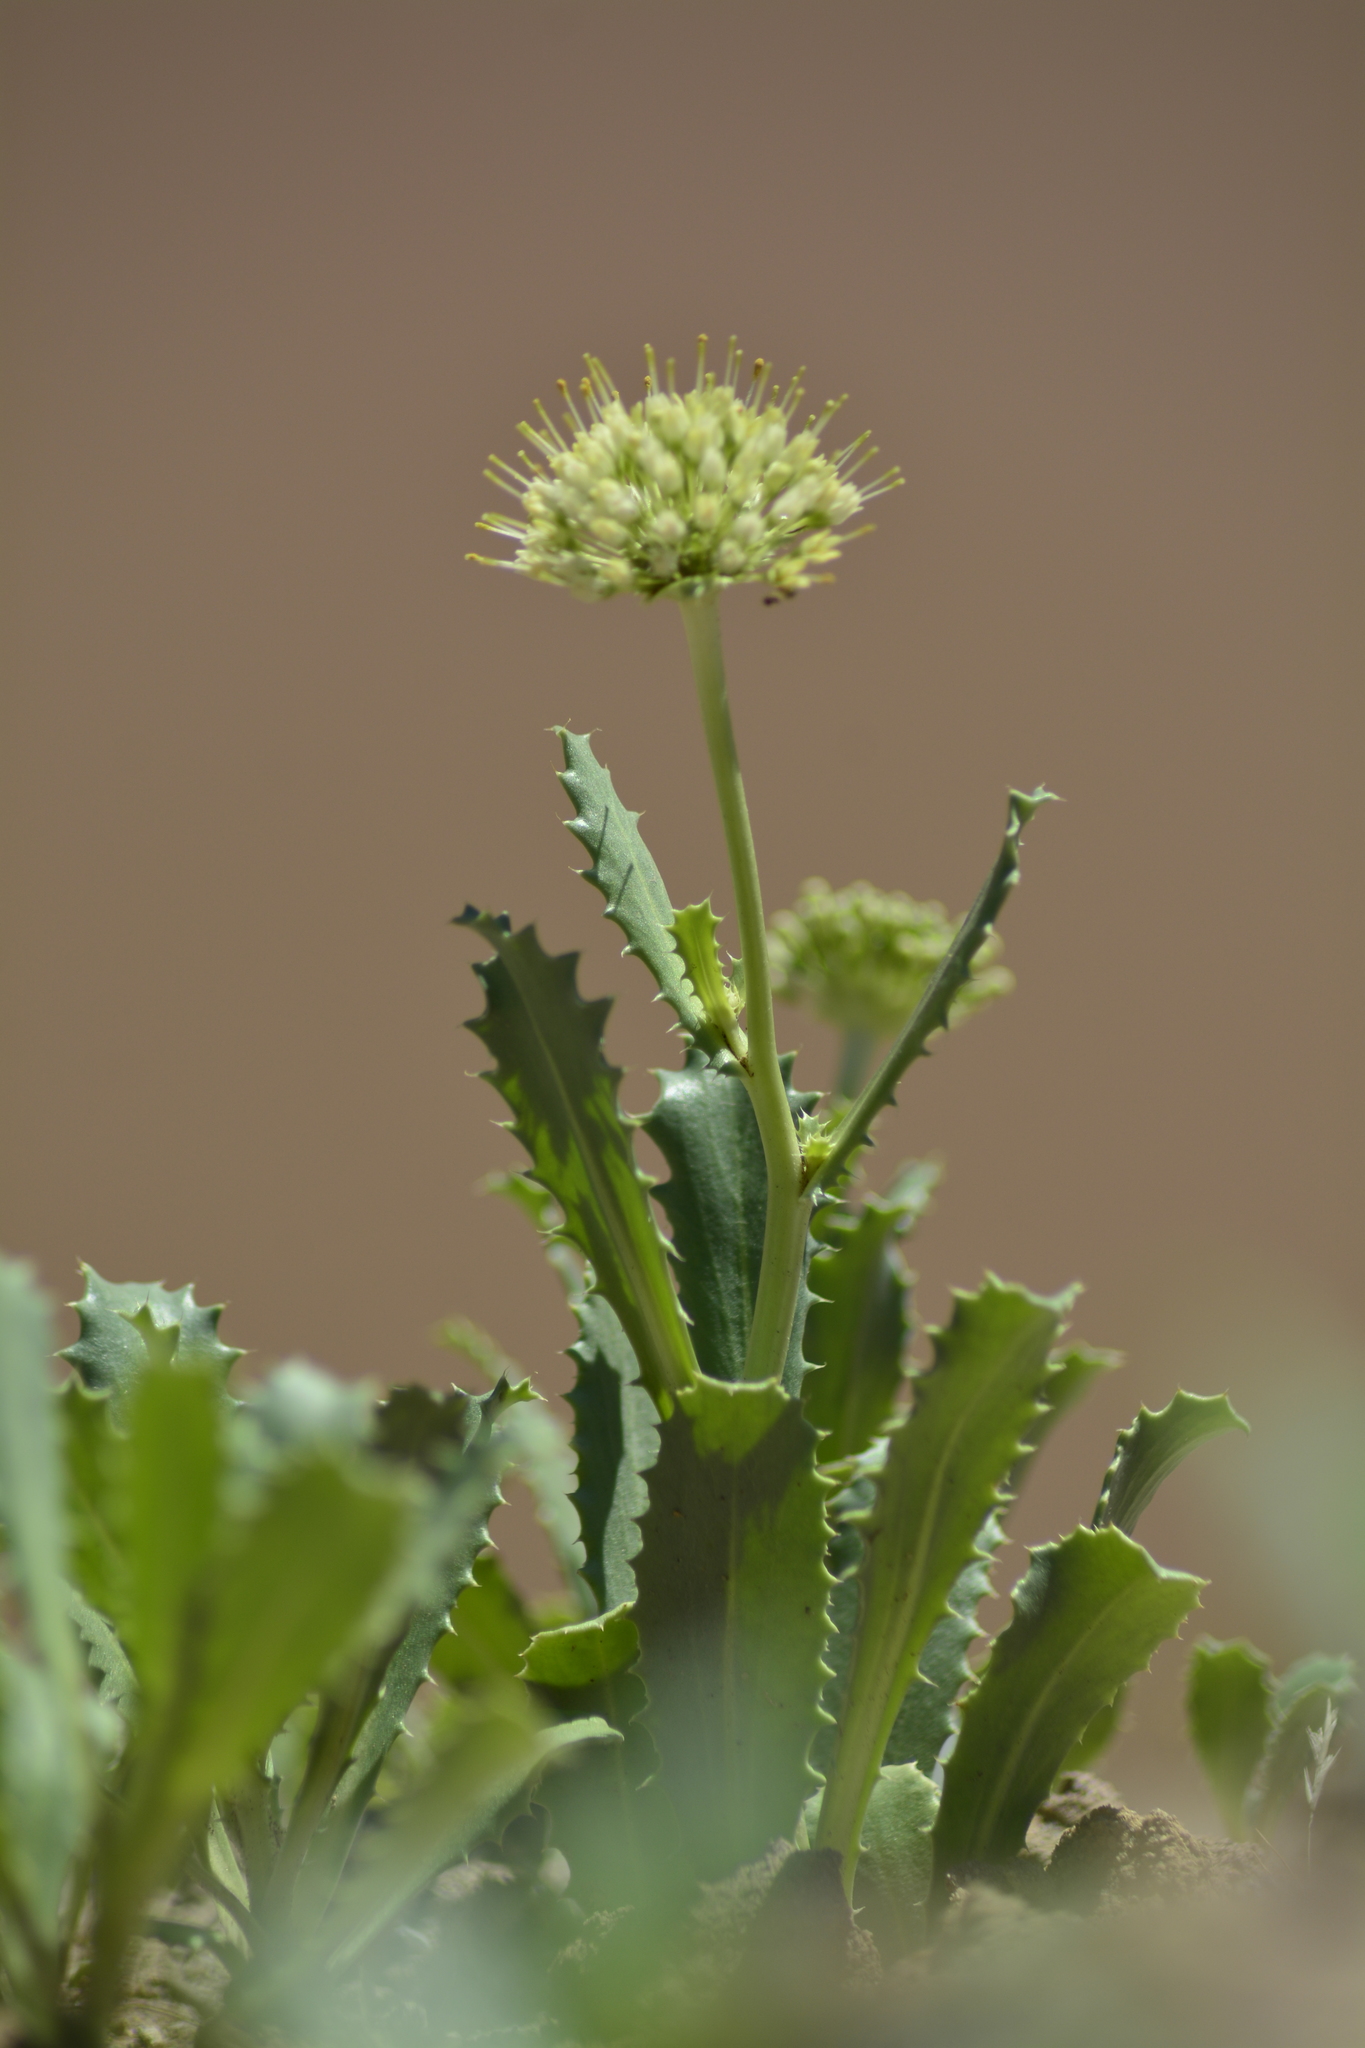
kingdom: Plantae
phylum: Tracheophyta
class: Magnoliopsida
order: Asterales
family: Calyceraceae
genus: Calycera
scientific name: Calycera crassifolia
